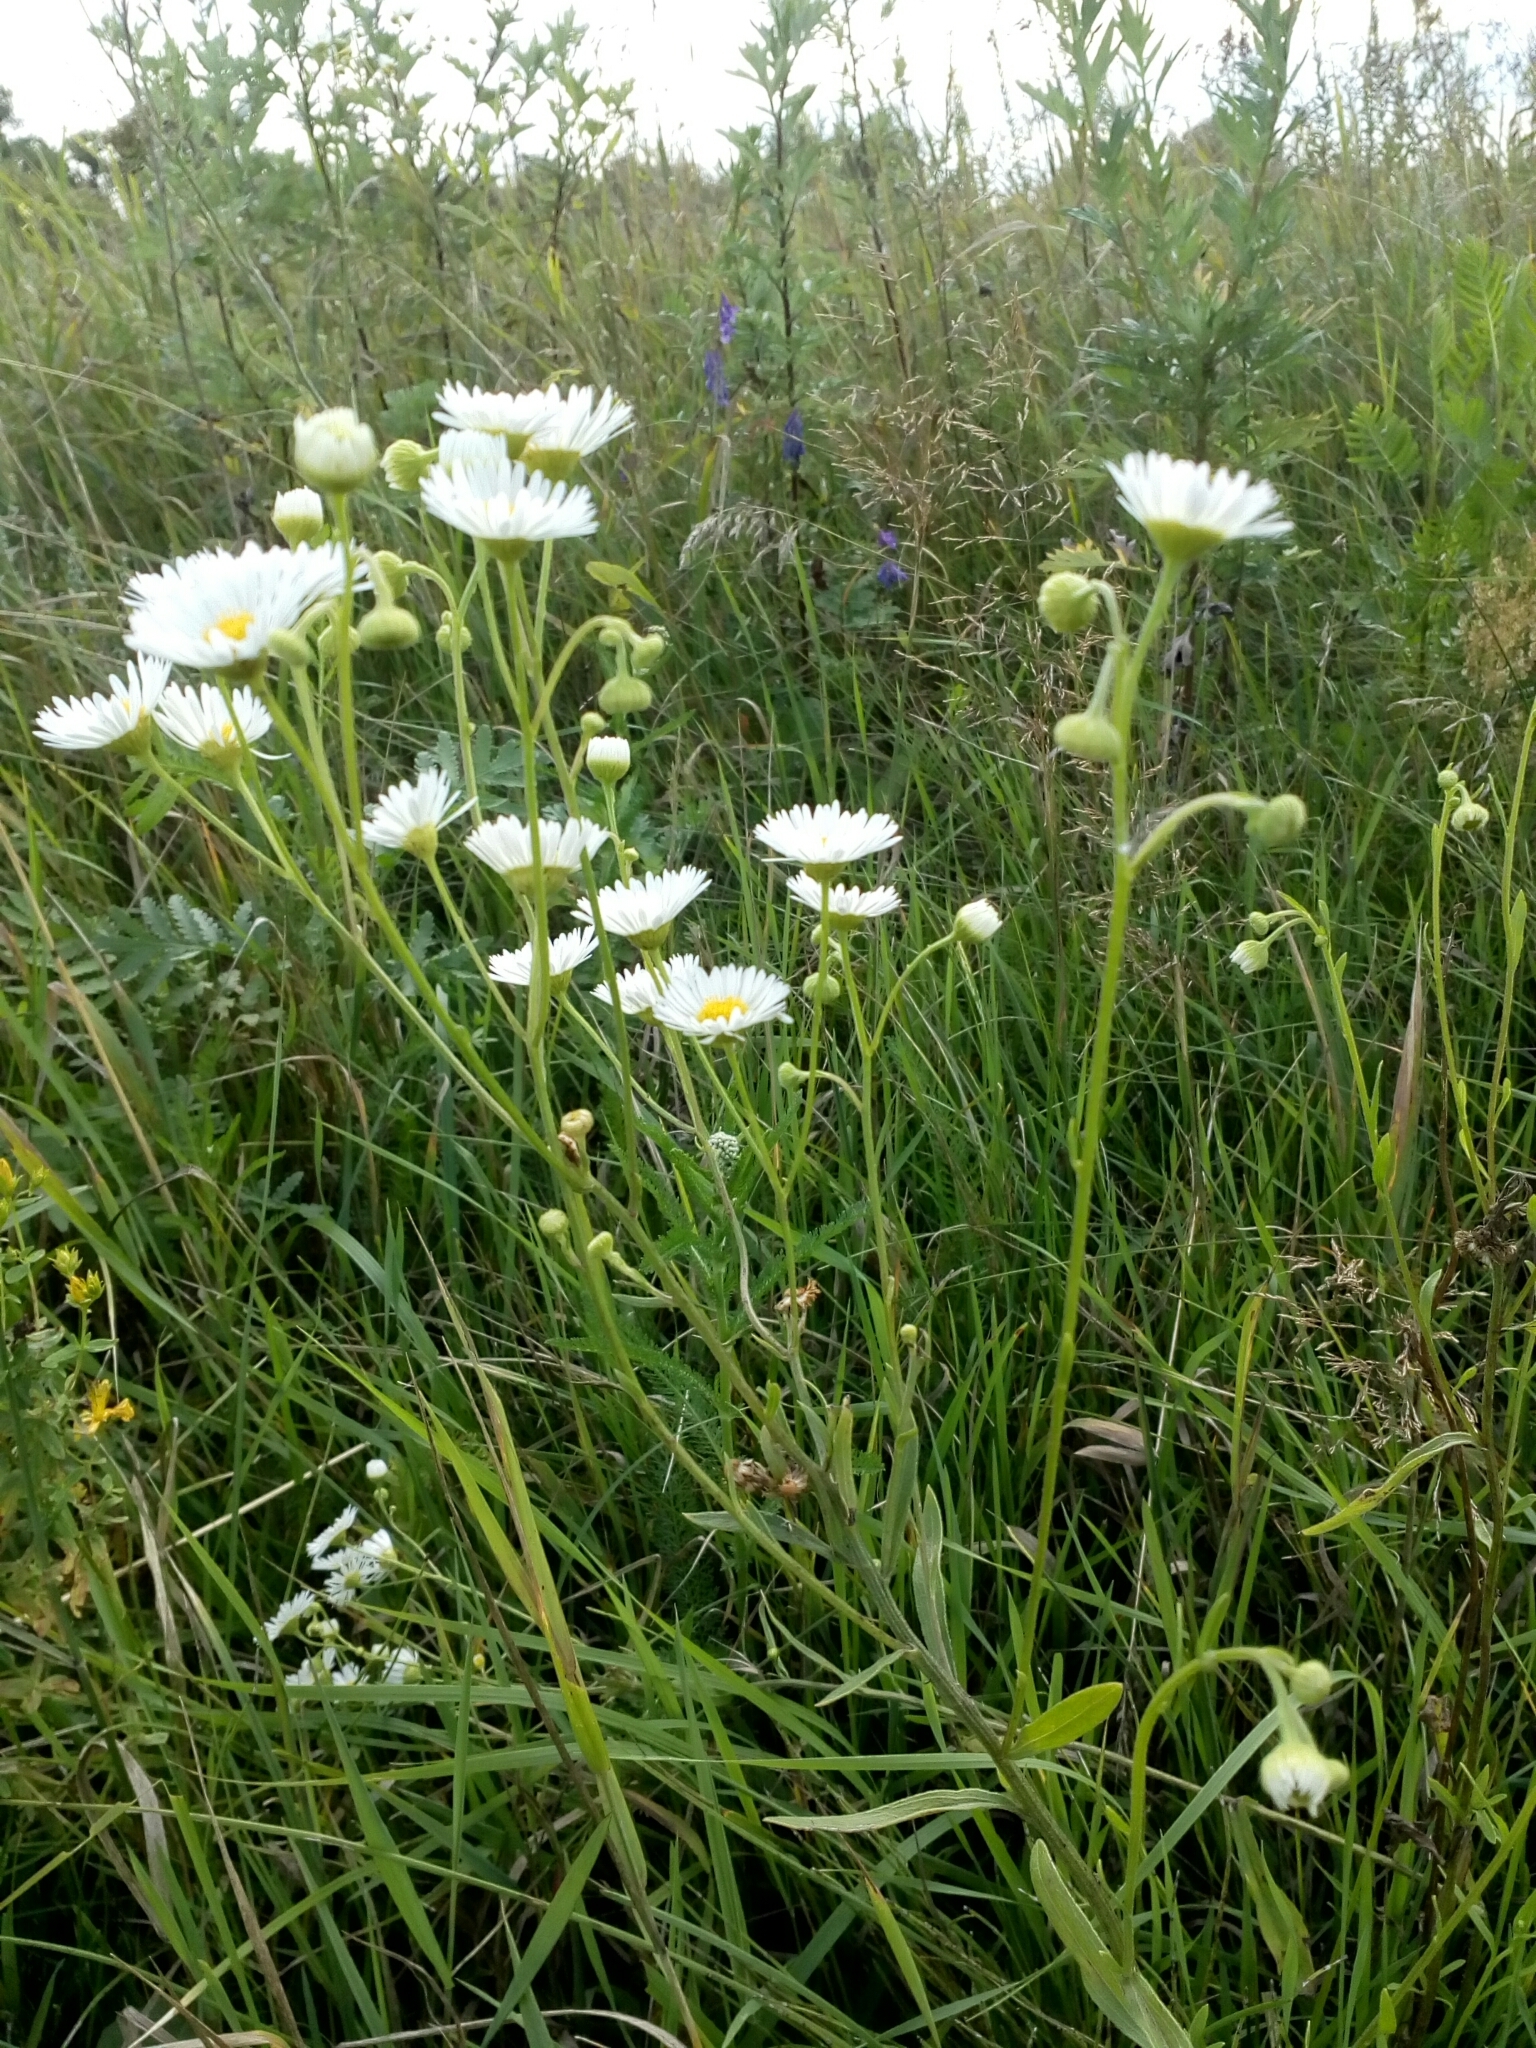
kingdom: Plantae
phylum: Tracheophyta
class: Magnoliopsida
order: Asterales
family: Asteraceae
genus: Erigeron
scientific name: Erigeron annuus
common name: Tall fleabane
